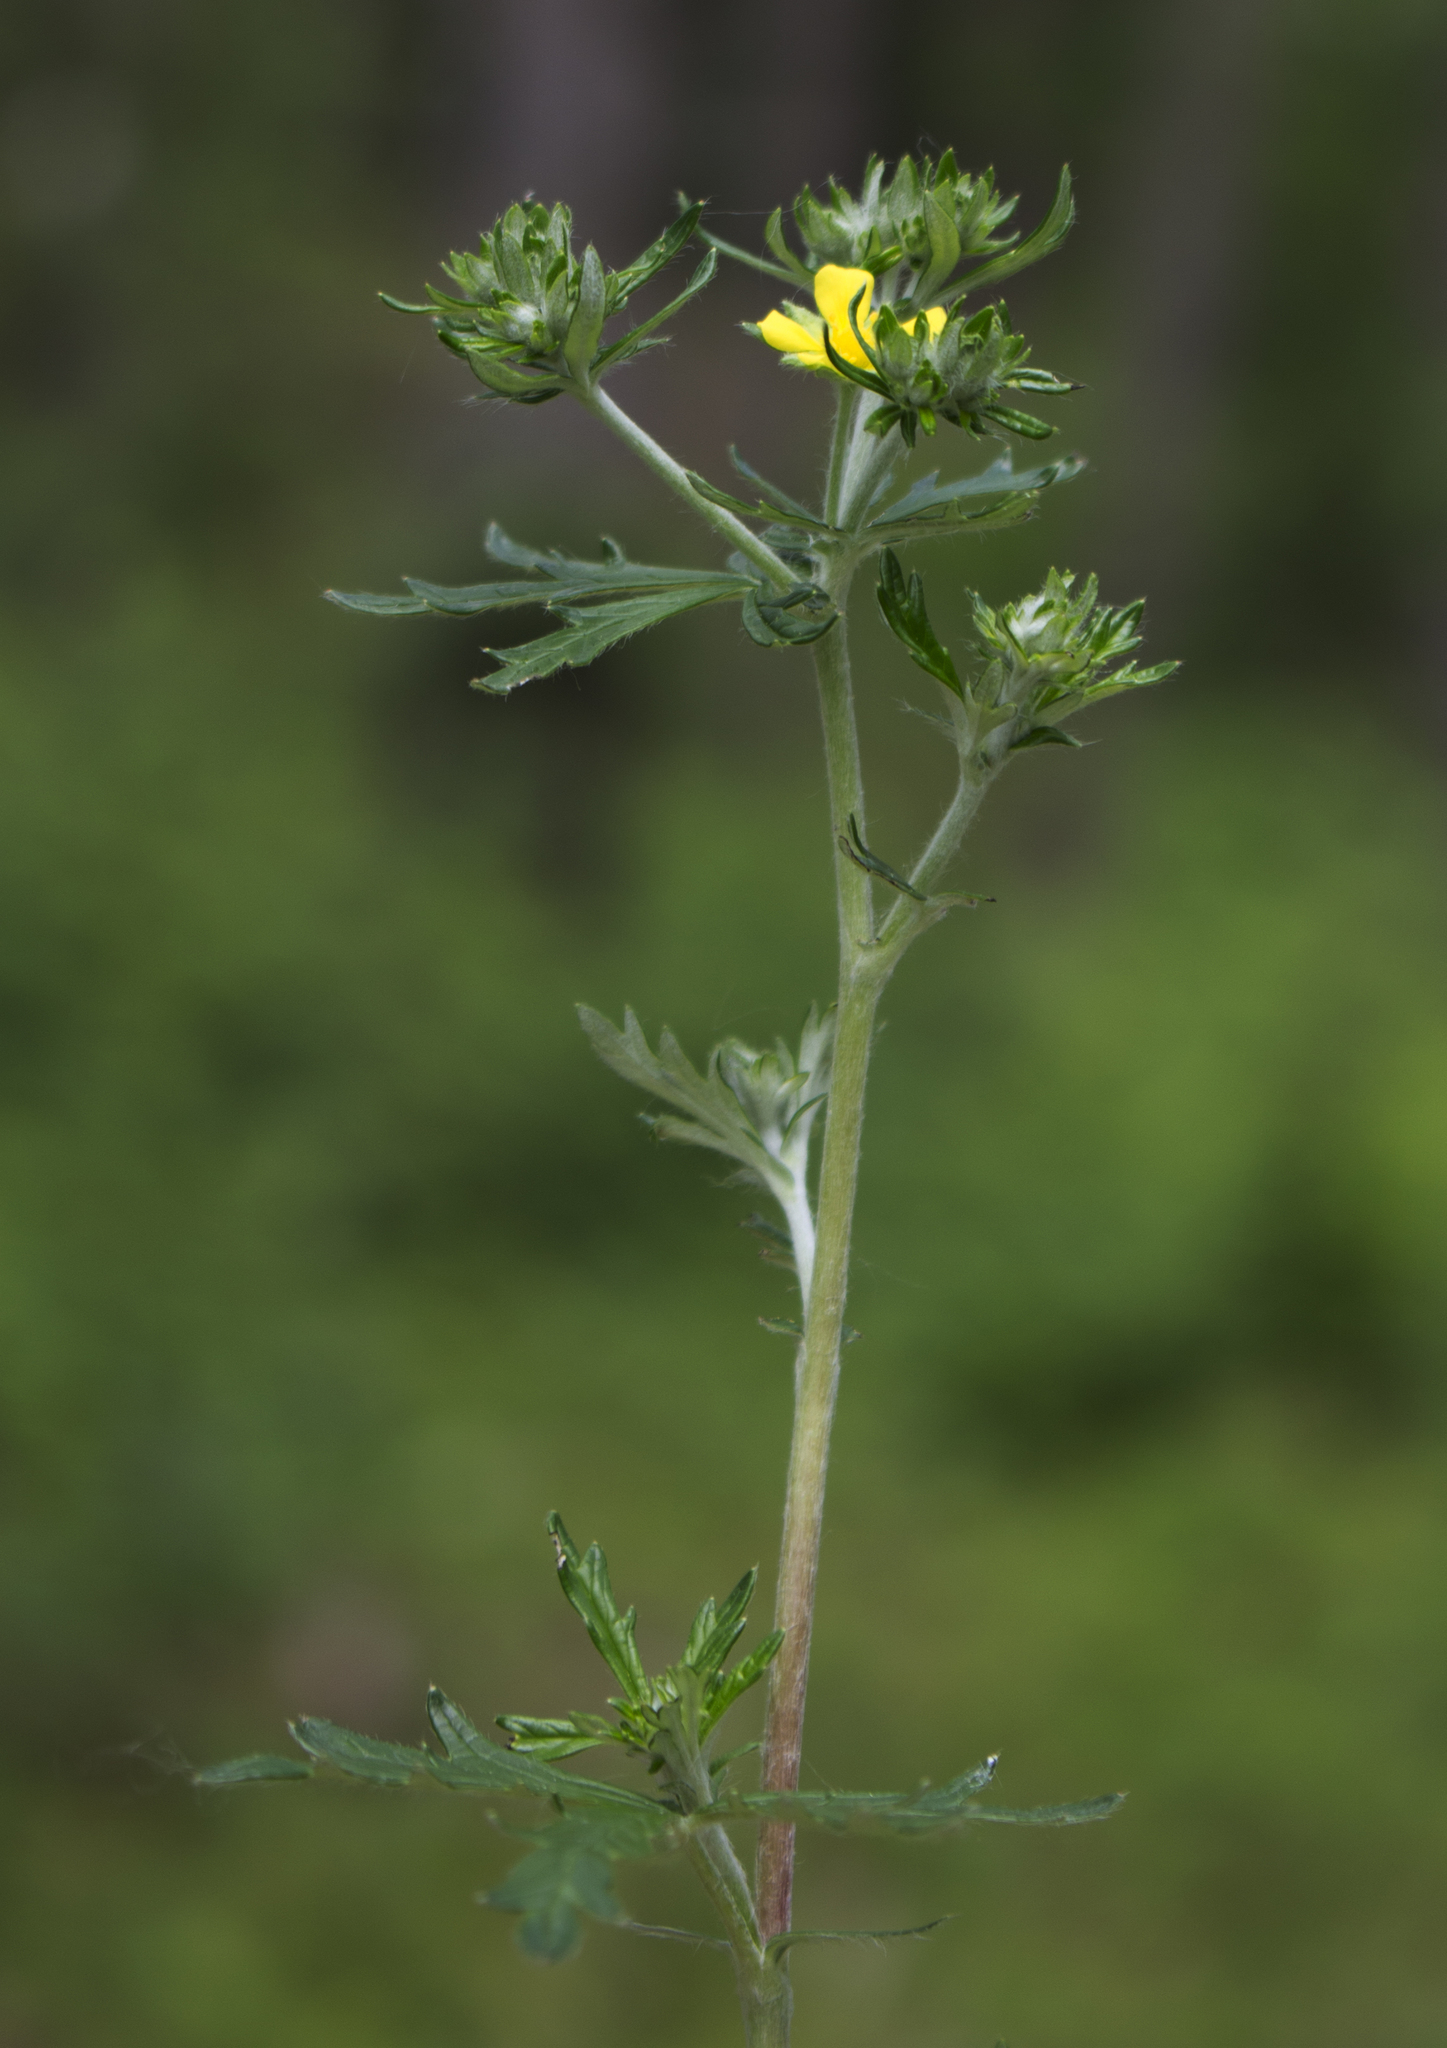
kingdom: Plantae
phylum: Tracheophyta
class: Magnoliopsida
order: Rosales
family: Rosaceae
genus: Potentilla
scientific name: Potentilla argentea
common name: Hoary cinquefoil
